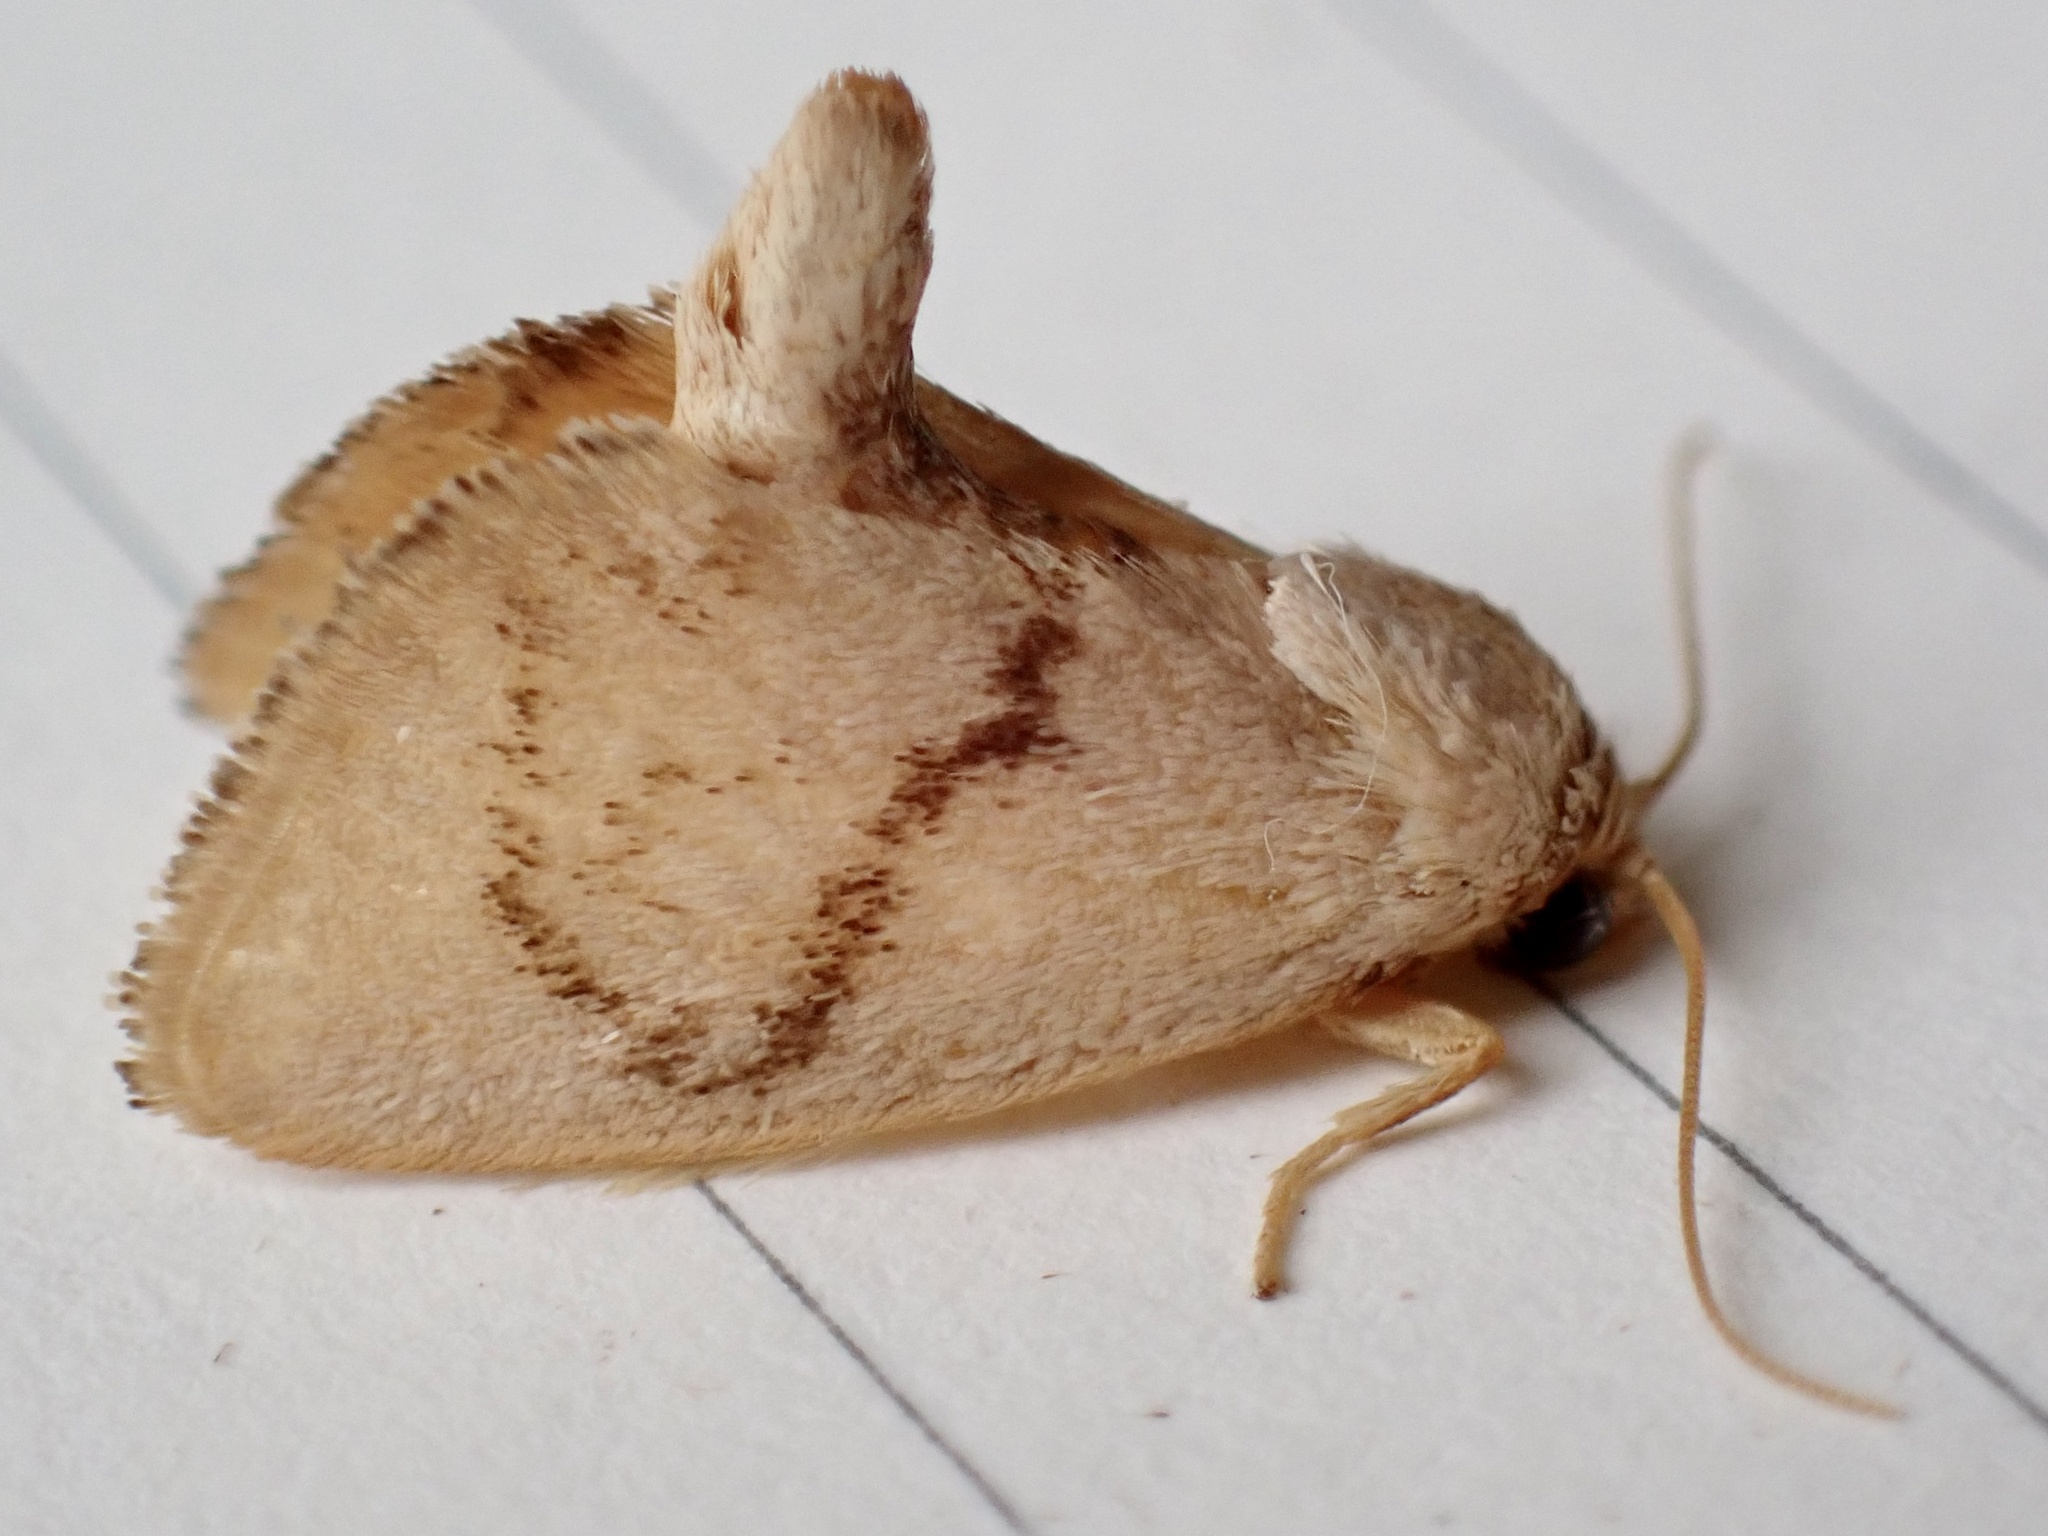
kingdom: Animalia
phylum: Arthropoda
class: Insecta
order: Lepidoptera
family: Limacodidae
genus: Tortricidia
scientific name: Tortricidia flexuosa
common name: Abbreviated button slug moth
